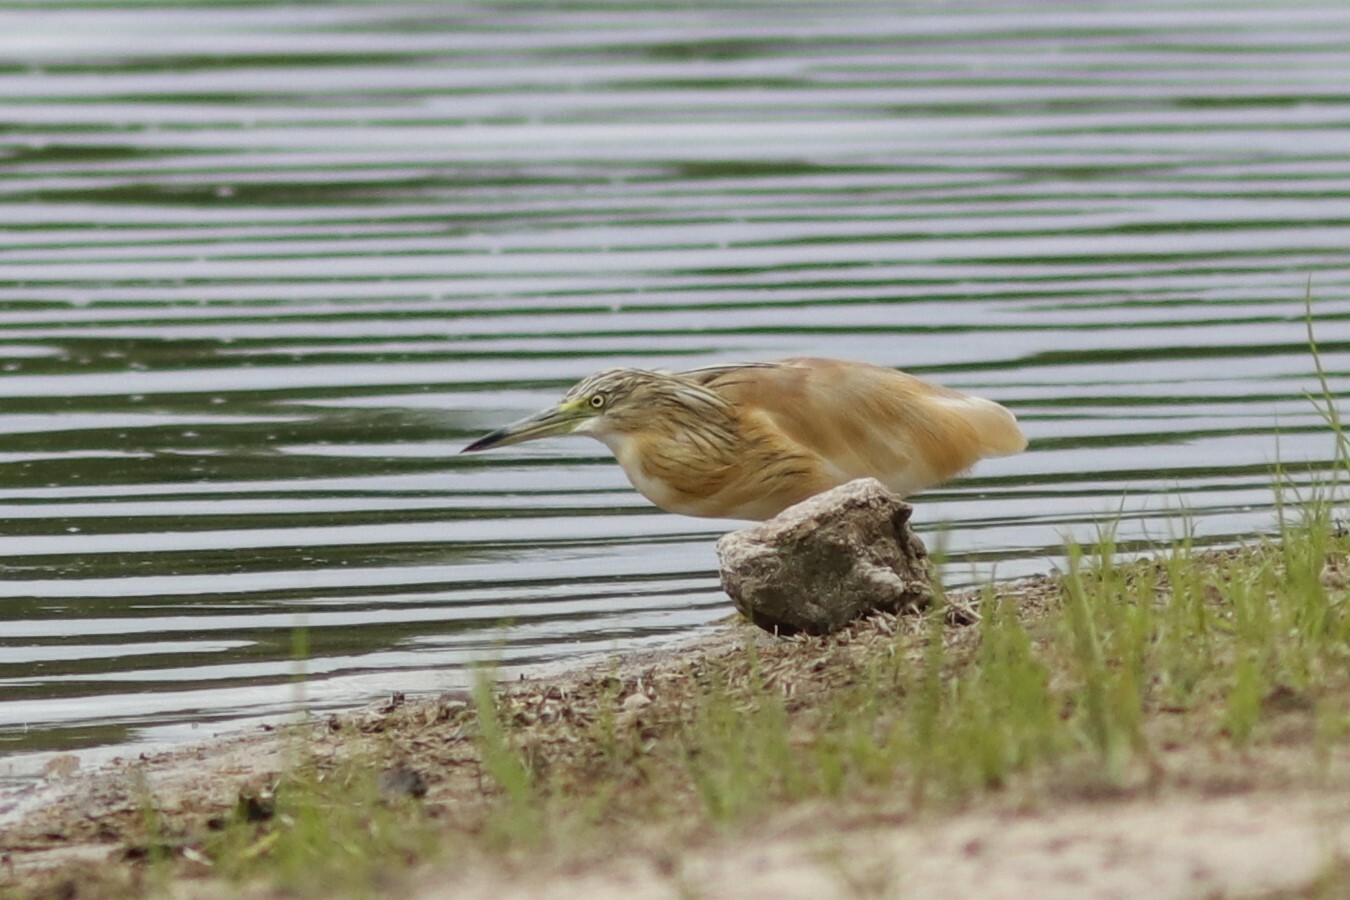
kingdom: Animalia
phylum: Chordata
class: Aves
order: Pelecaniformes
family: Ardeidae
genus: Ardeola
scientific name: Ardeola ralloides
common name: Squacco heron
